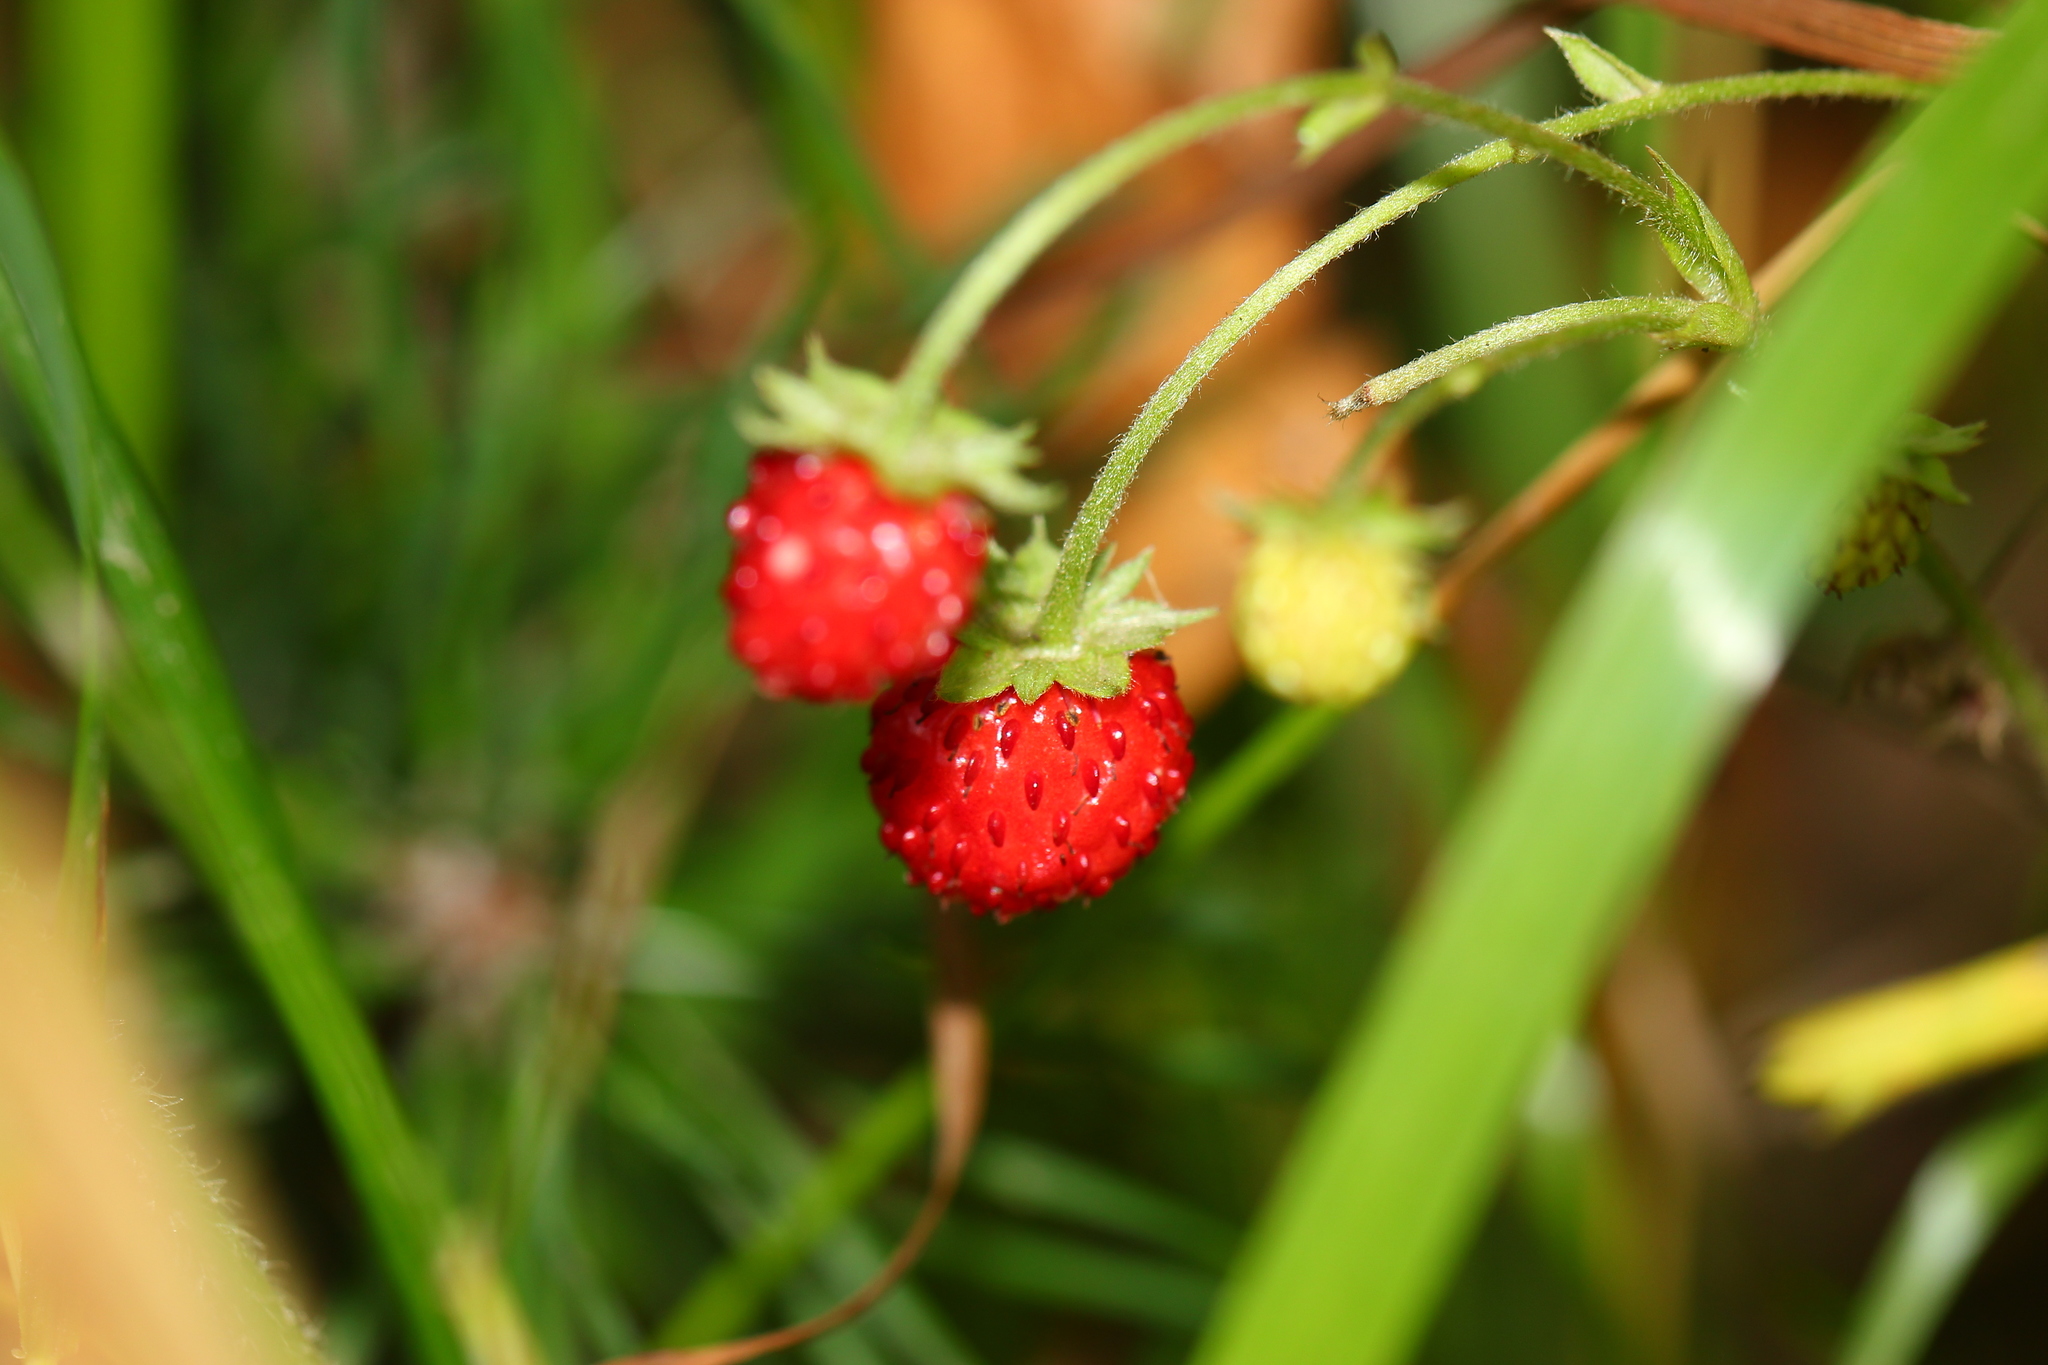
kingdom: Plantae
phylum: Tracheophyta
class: Magnoliopsida
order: Rosales
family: Rosaceae
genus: Fragaria
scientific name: Fragaria vesca
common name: Wild strawberry
